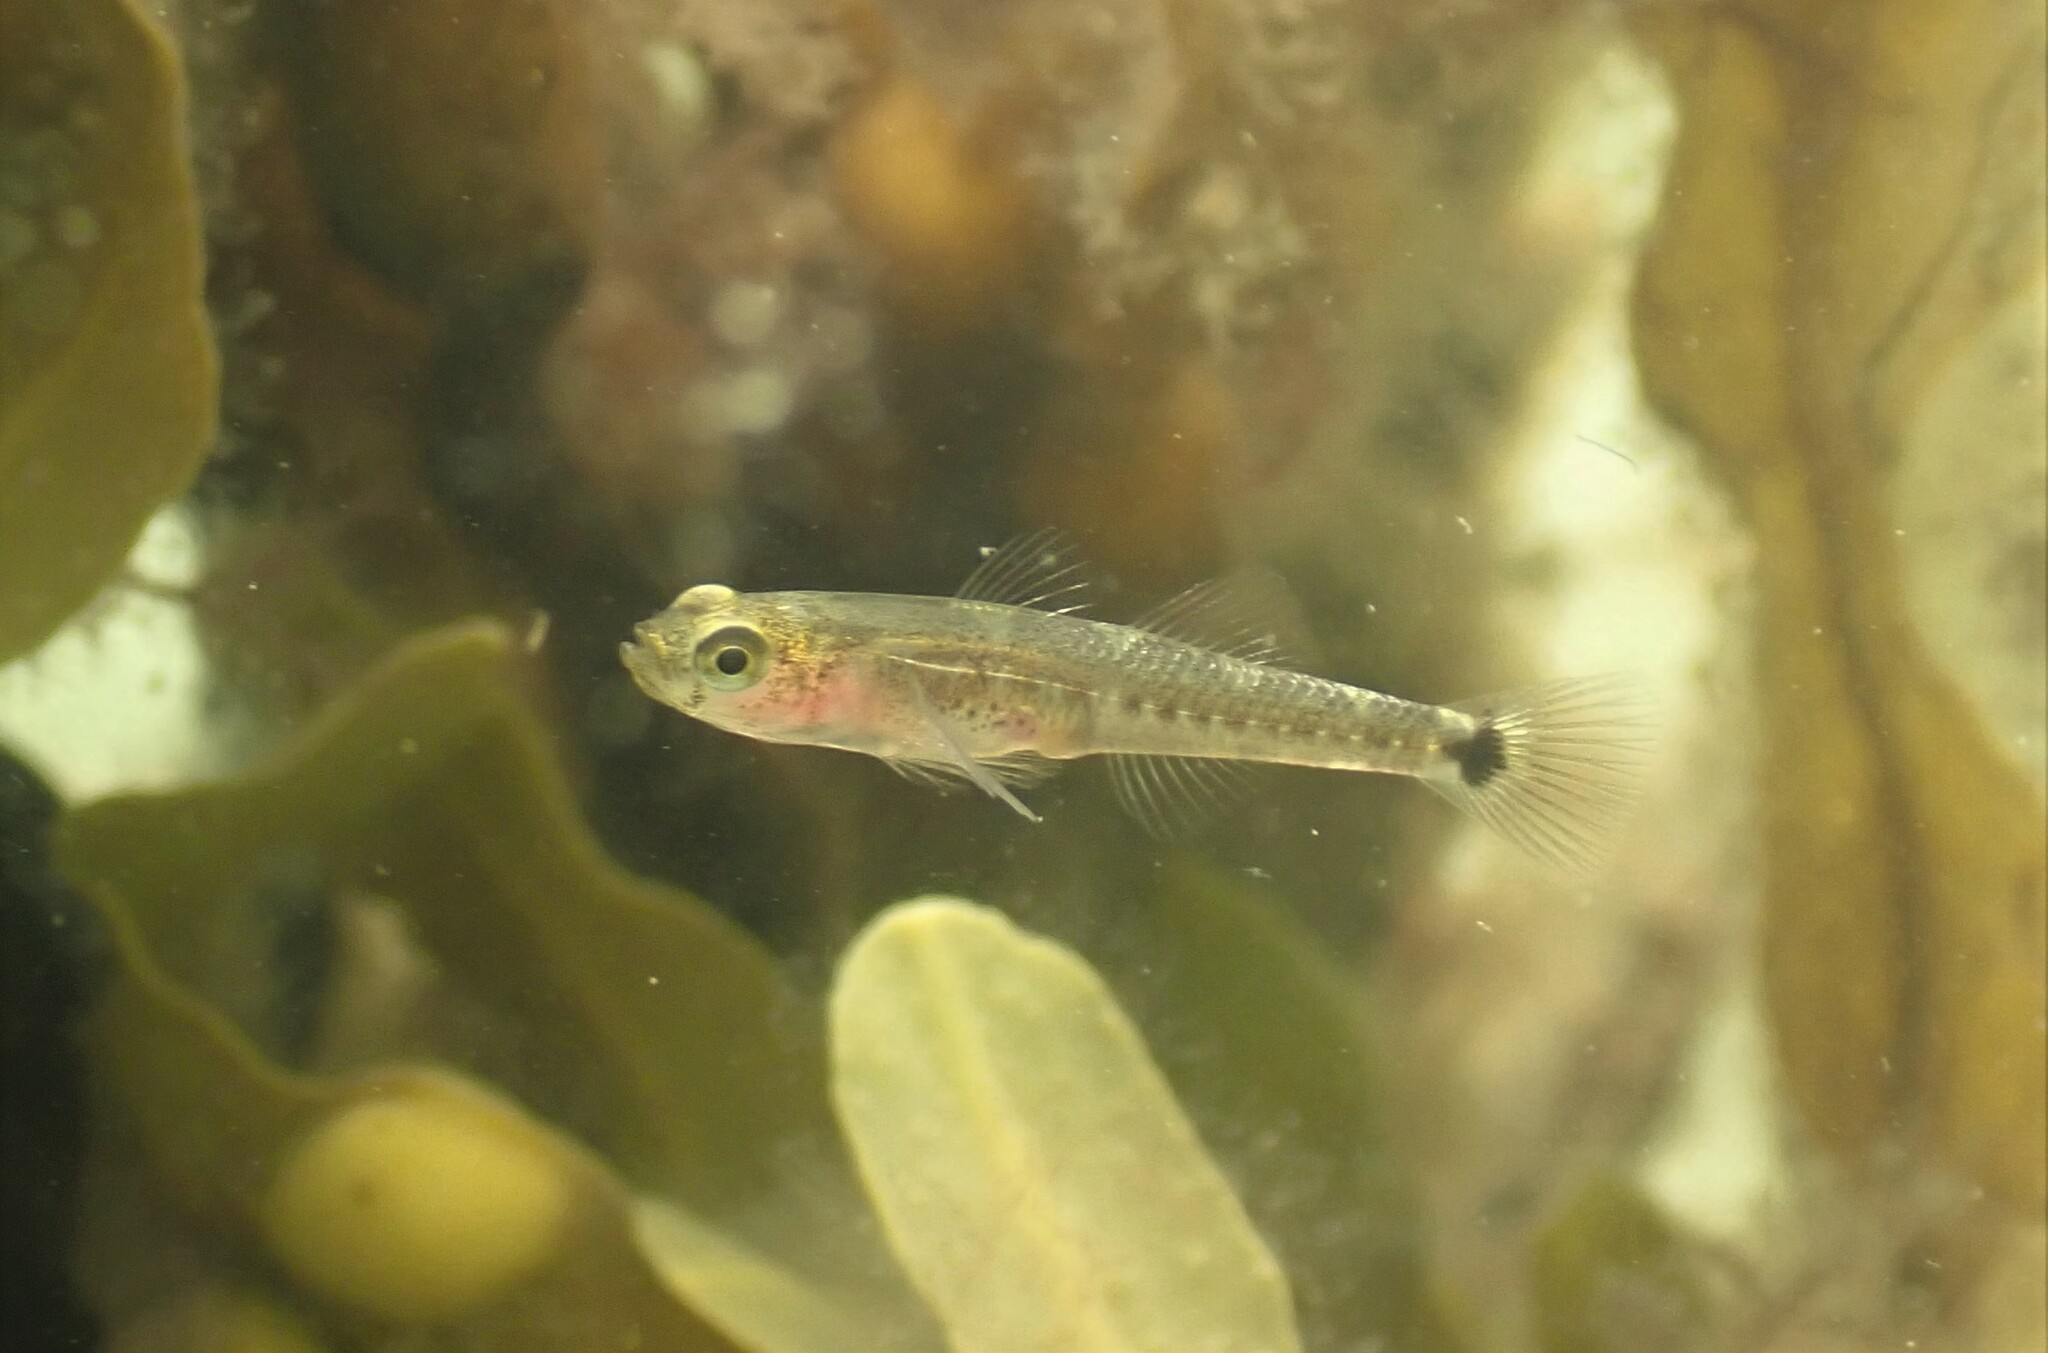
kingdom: Animalia
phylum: Chordata
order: Perciformes
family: Gobiidae
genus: Gobiusculus
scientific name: Gobiusculus flavescens
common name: Two-spotted goby
